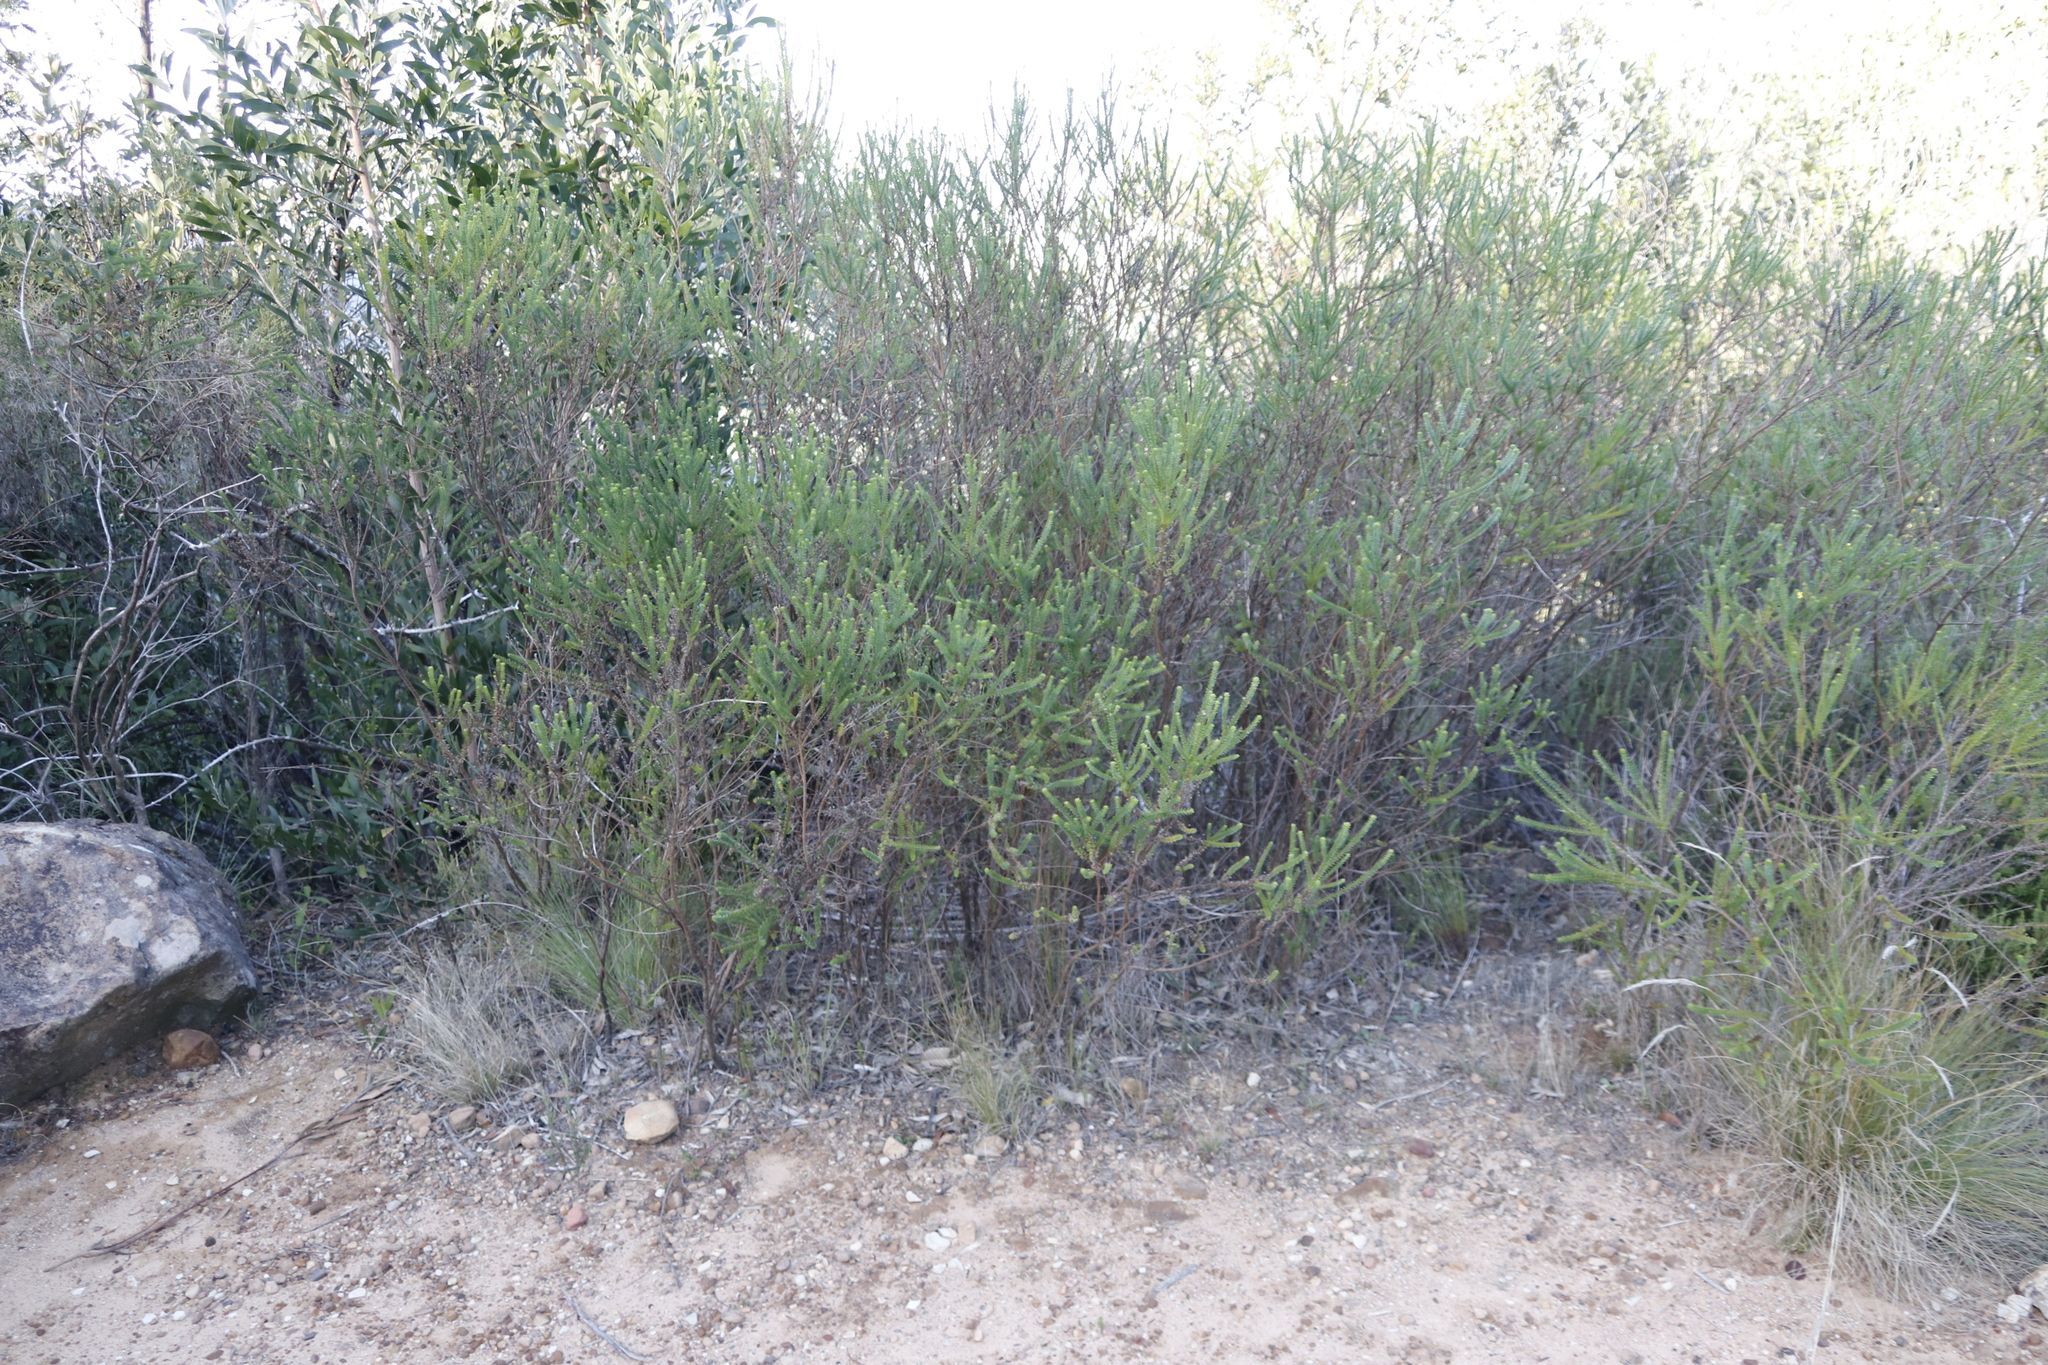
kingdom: Plantae
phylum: Tracheophyta
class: Magnoliopsida
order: Asterales
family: Asteraceae
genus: Euryops
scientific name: Euryops virgineus
